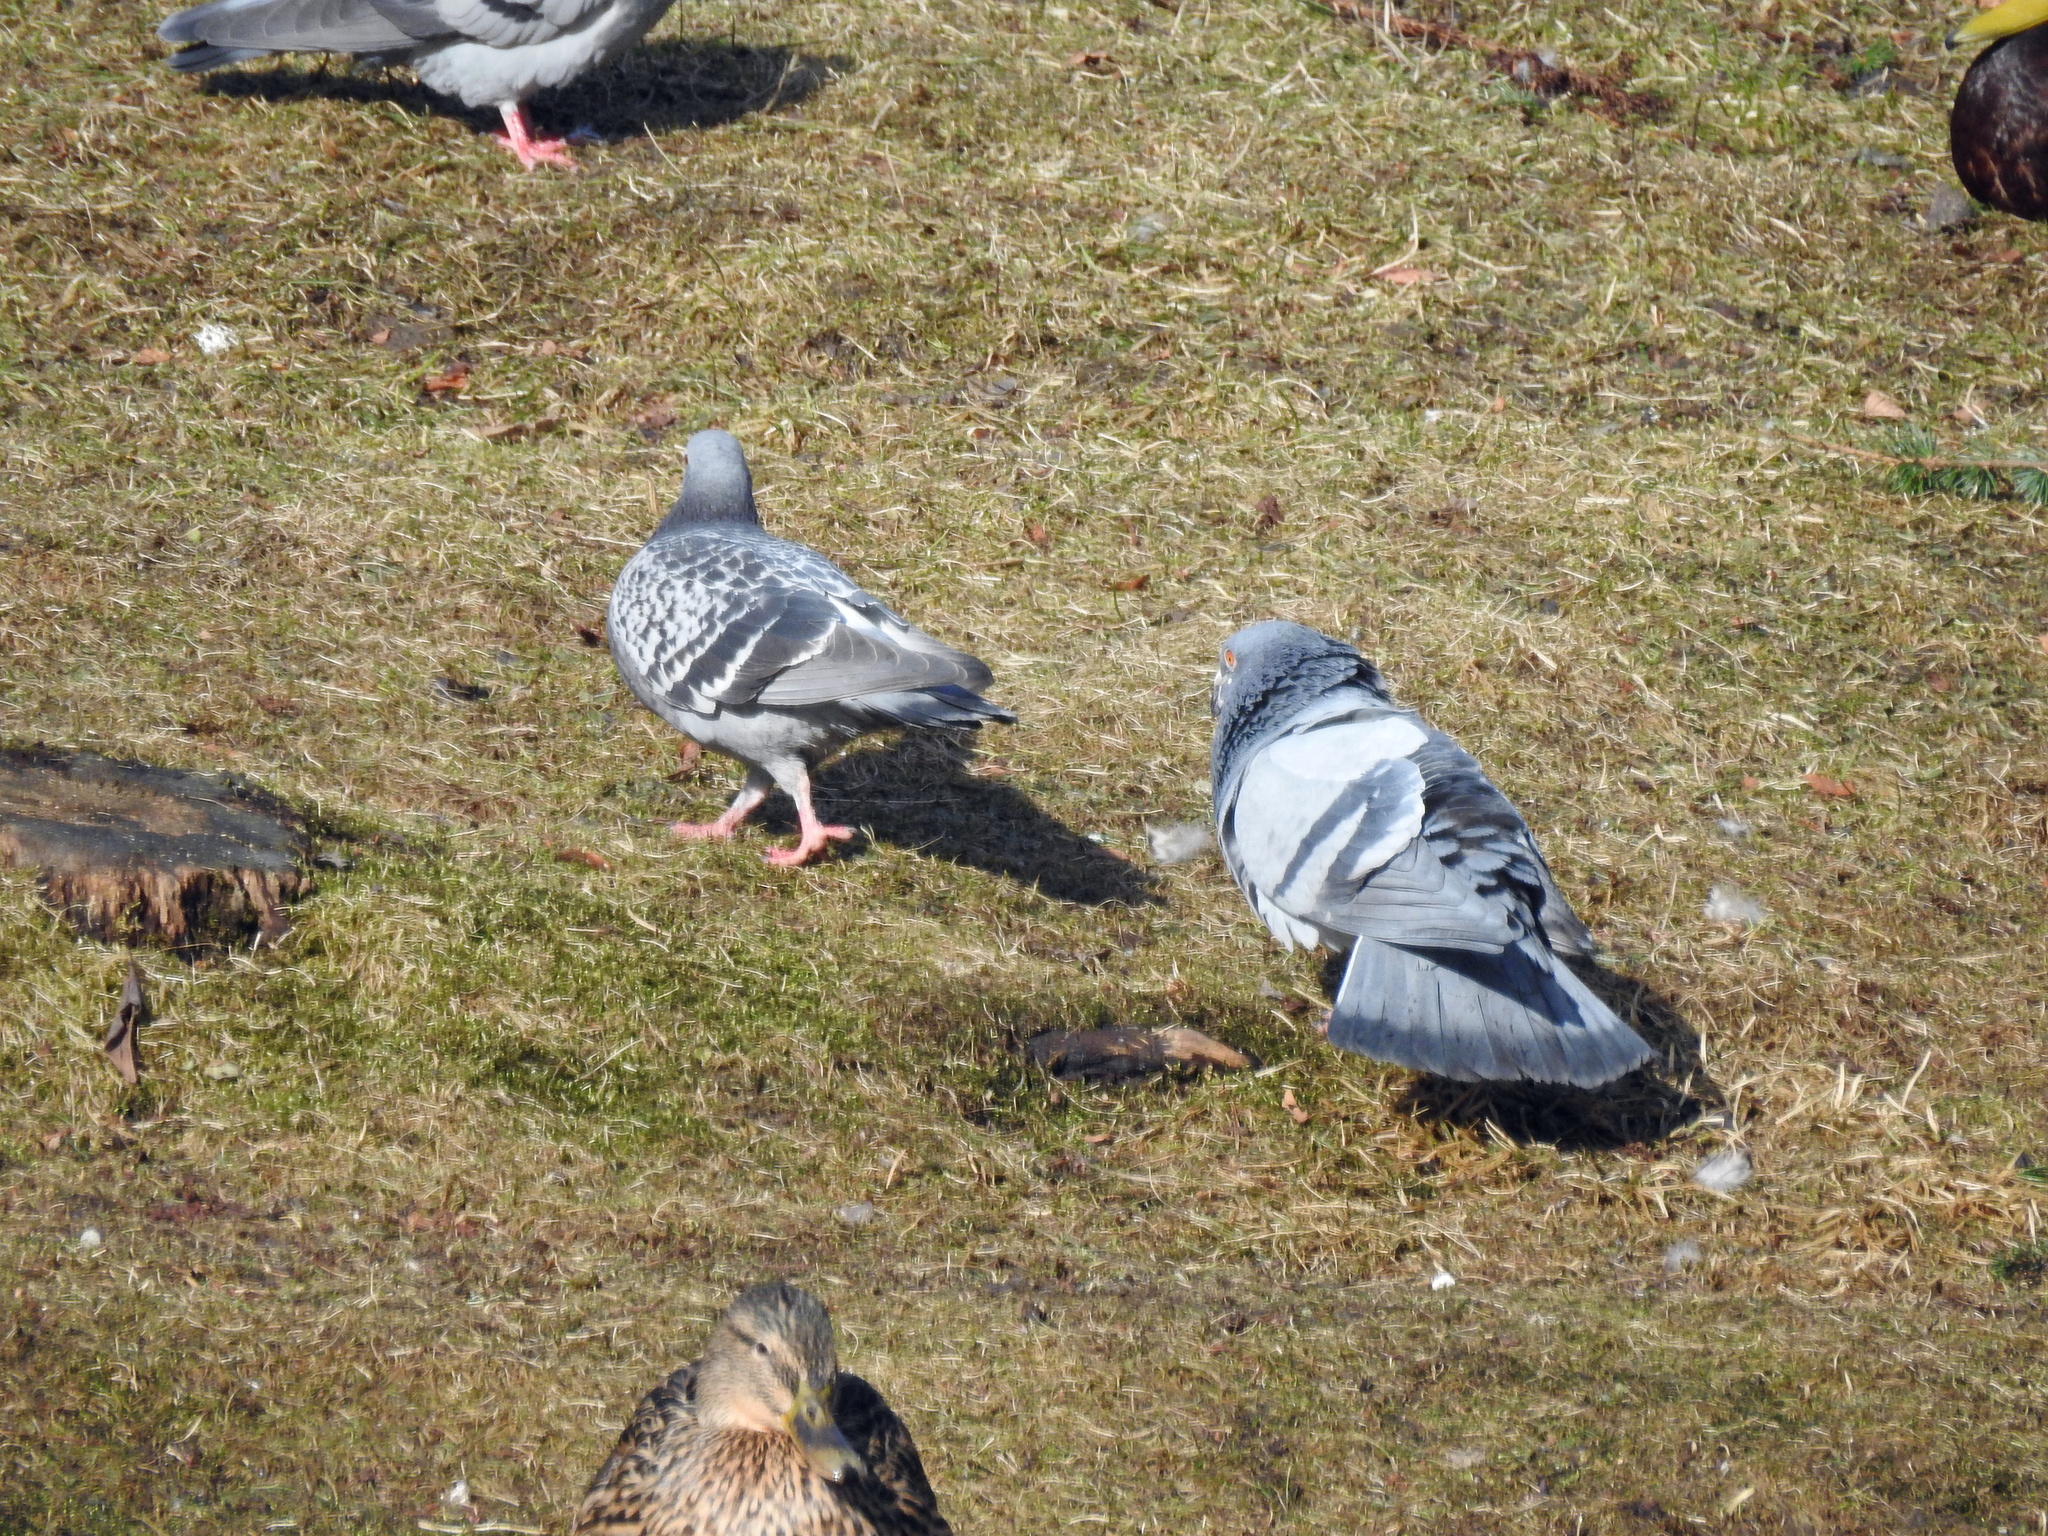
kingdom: Animalia
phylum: Chordata
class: Aves
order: Columbiformes
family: Columbidae
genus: Columba
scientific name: Columba livia
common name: Rock pigeon
